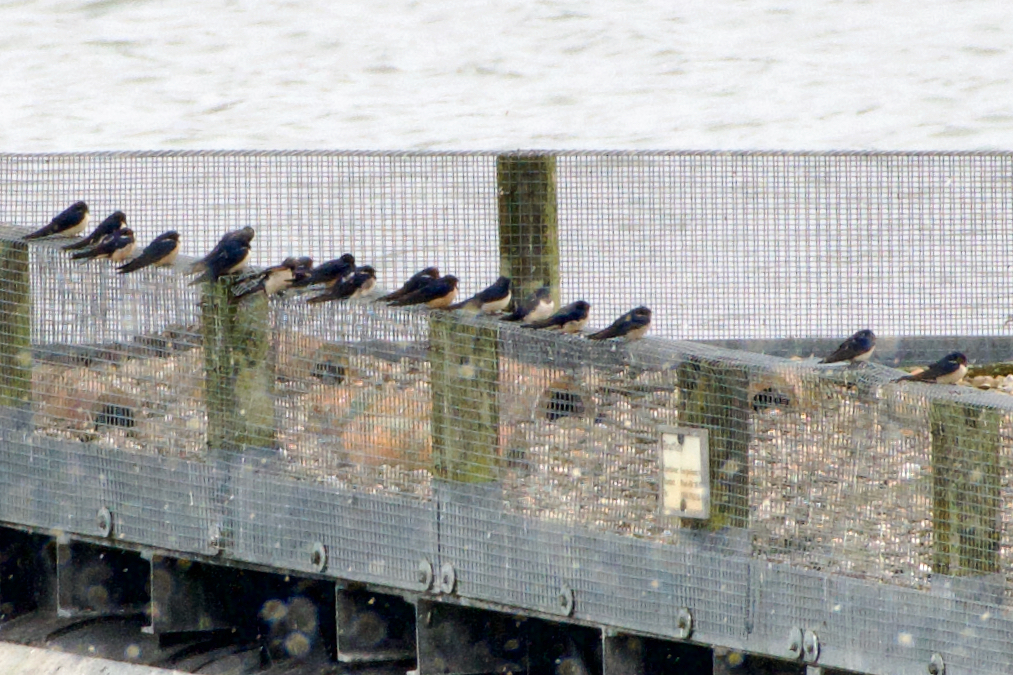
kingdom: Animalia
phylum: Chordata
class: Aves
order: Passeriformes
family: Hirundinidae
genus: Hirundo
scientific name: Hirundo rustica
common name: Barn swallow
